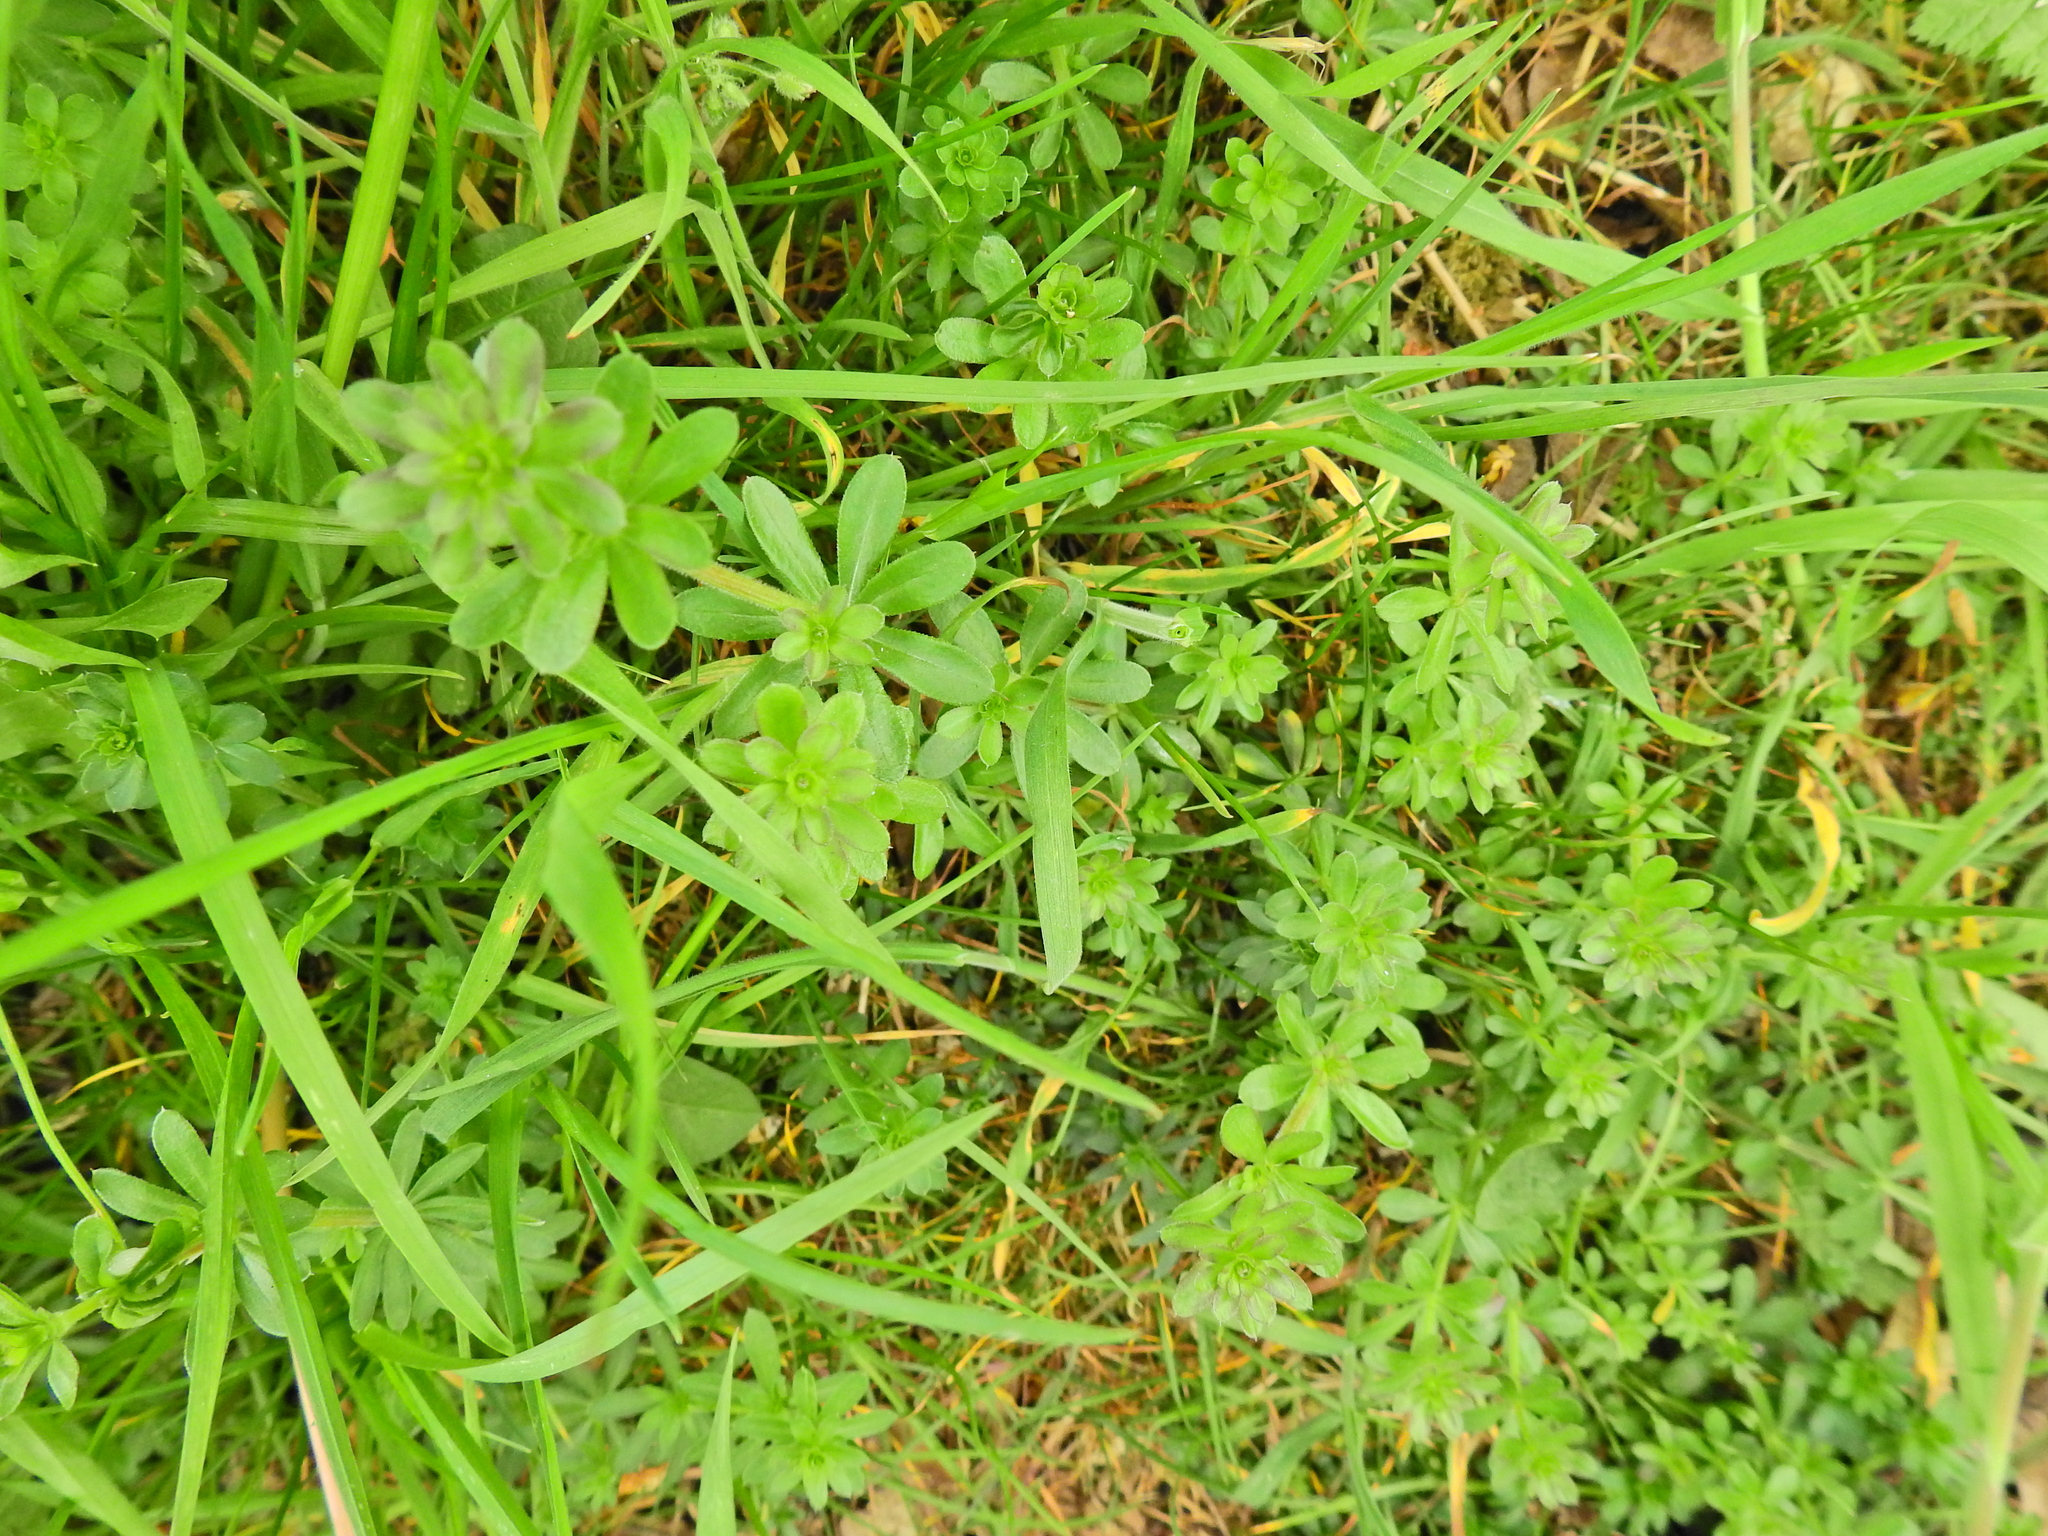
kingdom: Plantae
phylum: Tracheophyta
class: Magnoliopsida
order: Gentianales
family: Rubiaceae
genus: Galium
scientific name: Galium aparine
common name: Cleavers
